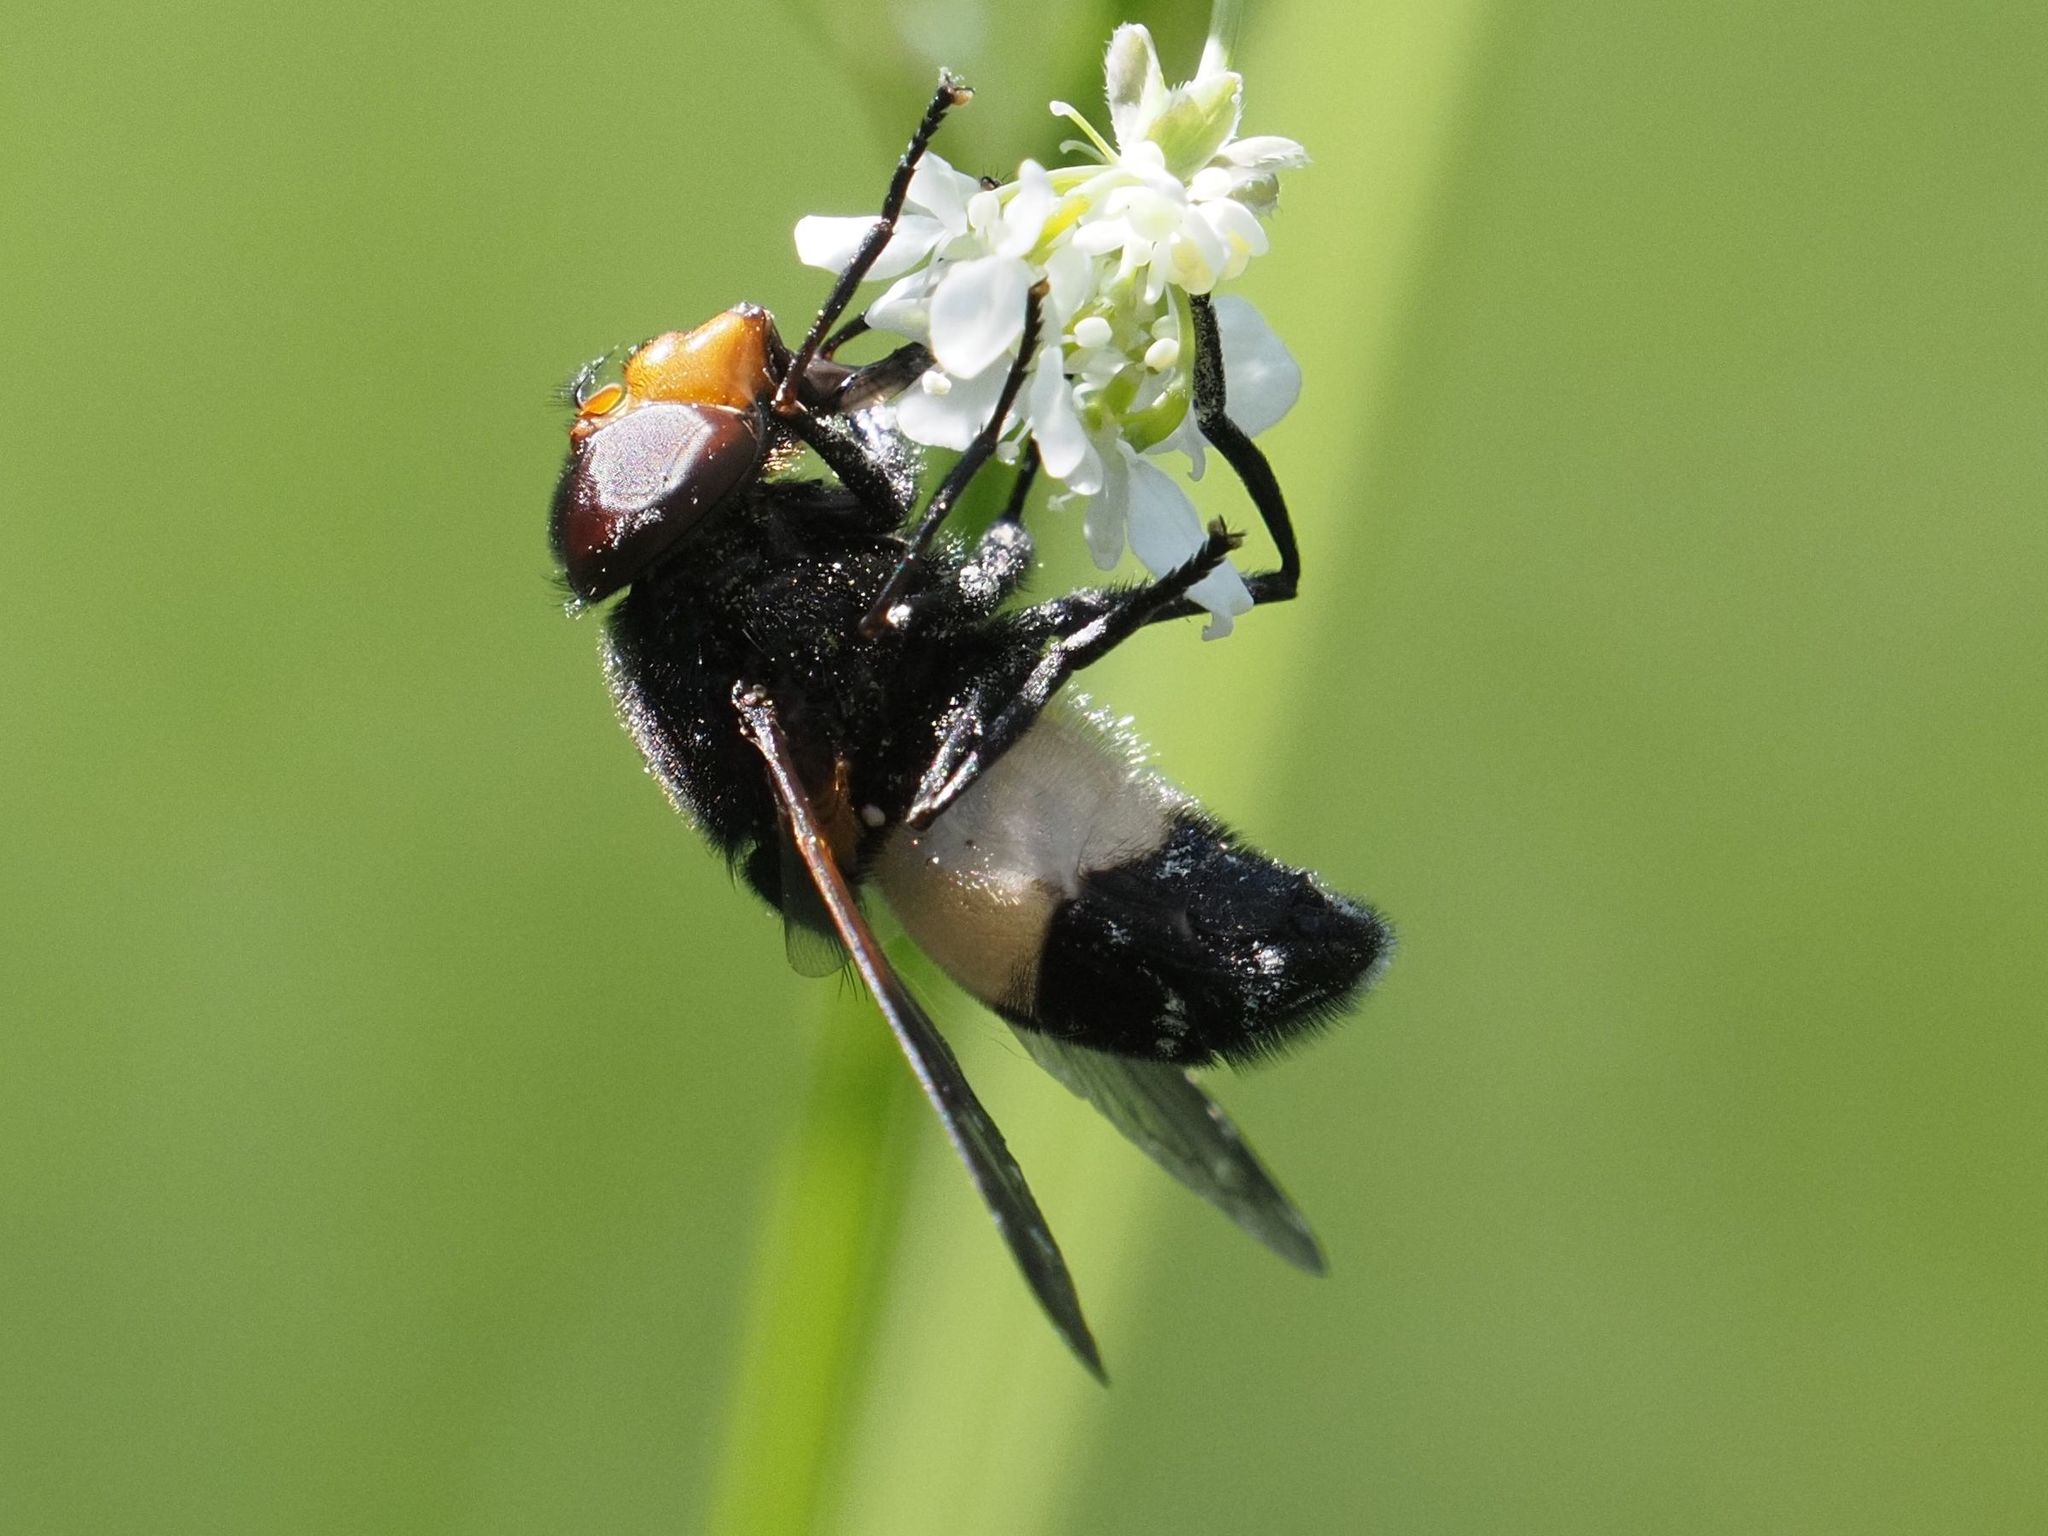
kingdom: Animalia
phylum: Arthropoda
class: Insecta
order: Diptera
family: Syrphidae
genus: Volucella
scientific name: Volucella pellucens
